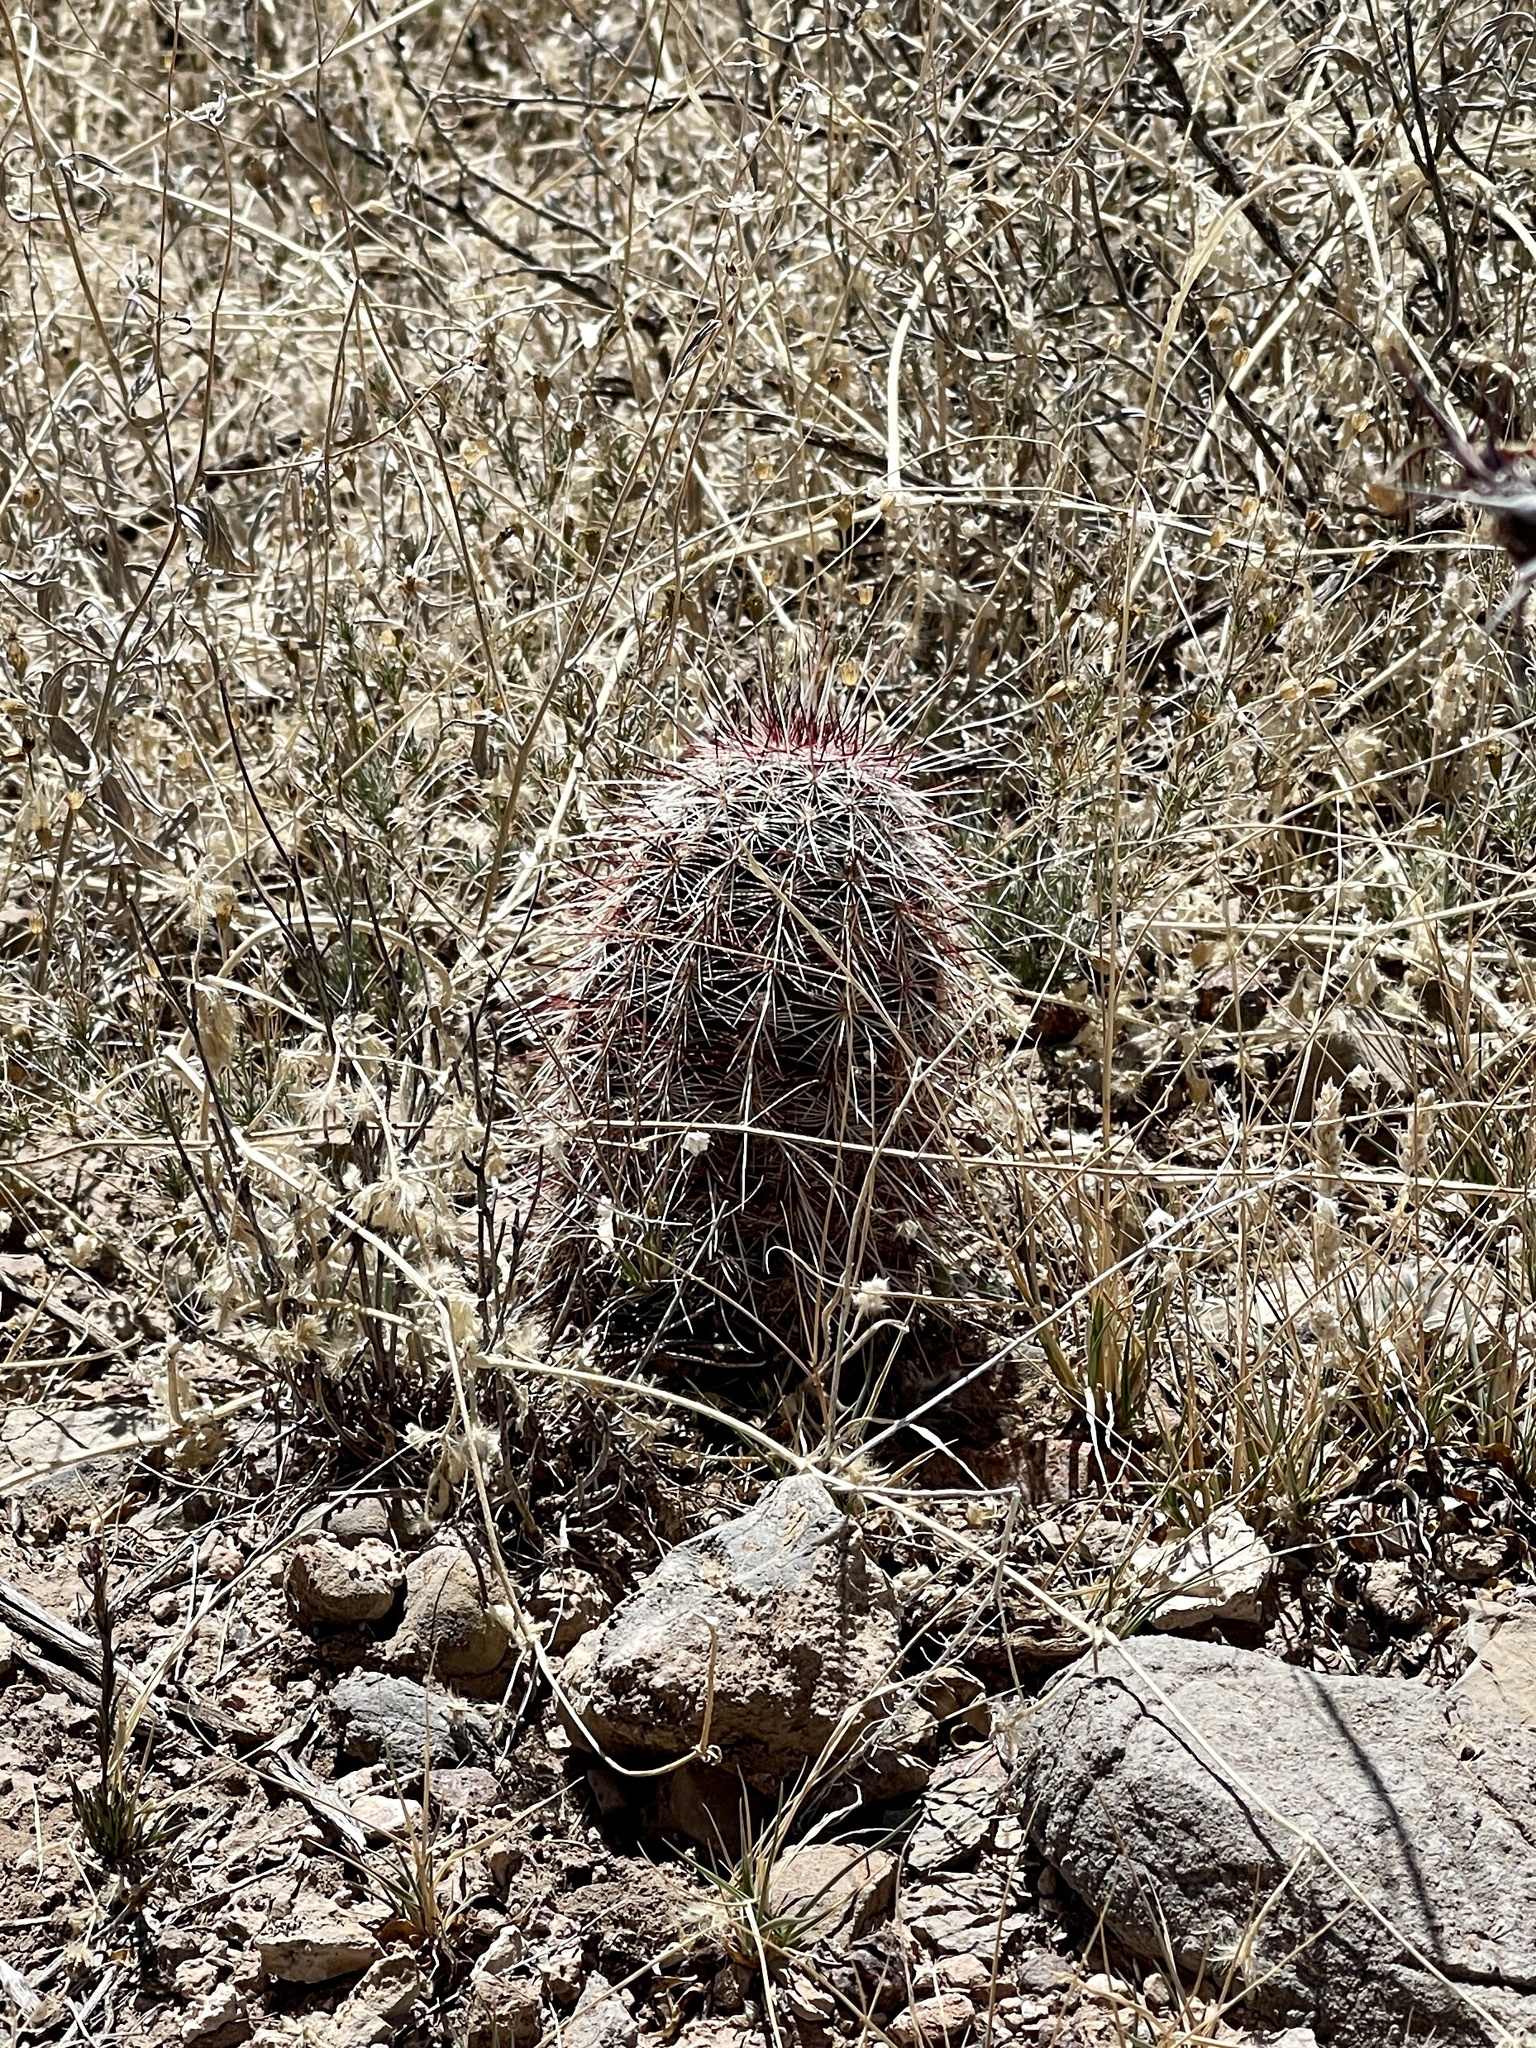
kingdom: Plantae
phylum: Tracheophyta
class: Magnoliopsida
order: Caryophyllales
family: Cactaceae
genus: Echinocereus
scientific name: Echinocereus viridiflorus
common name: Nylon hedgehog cactus
